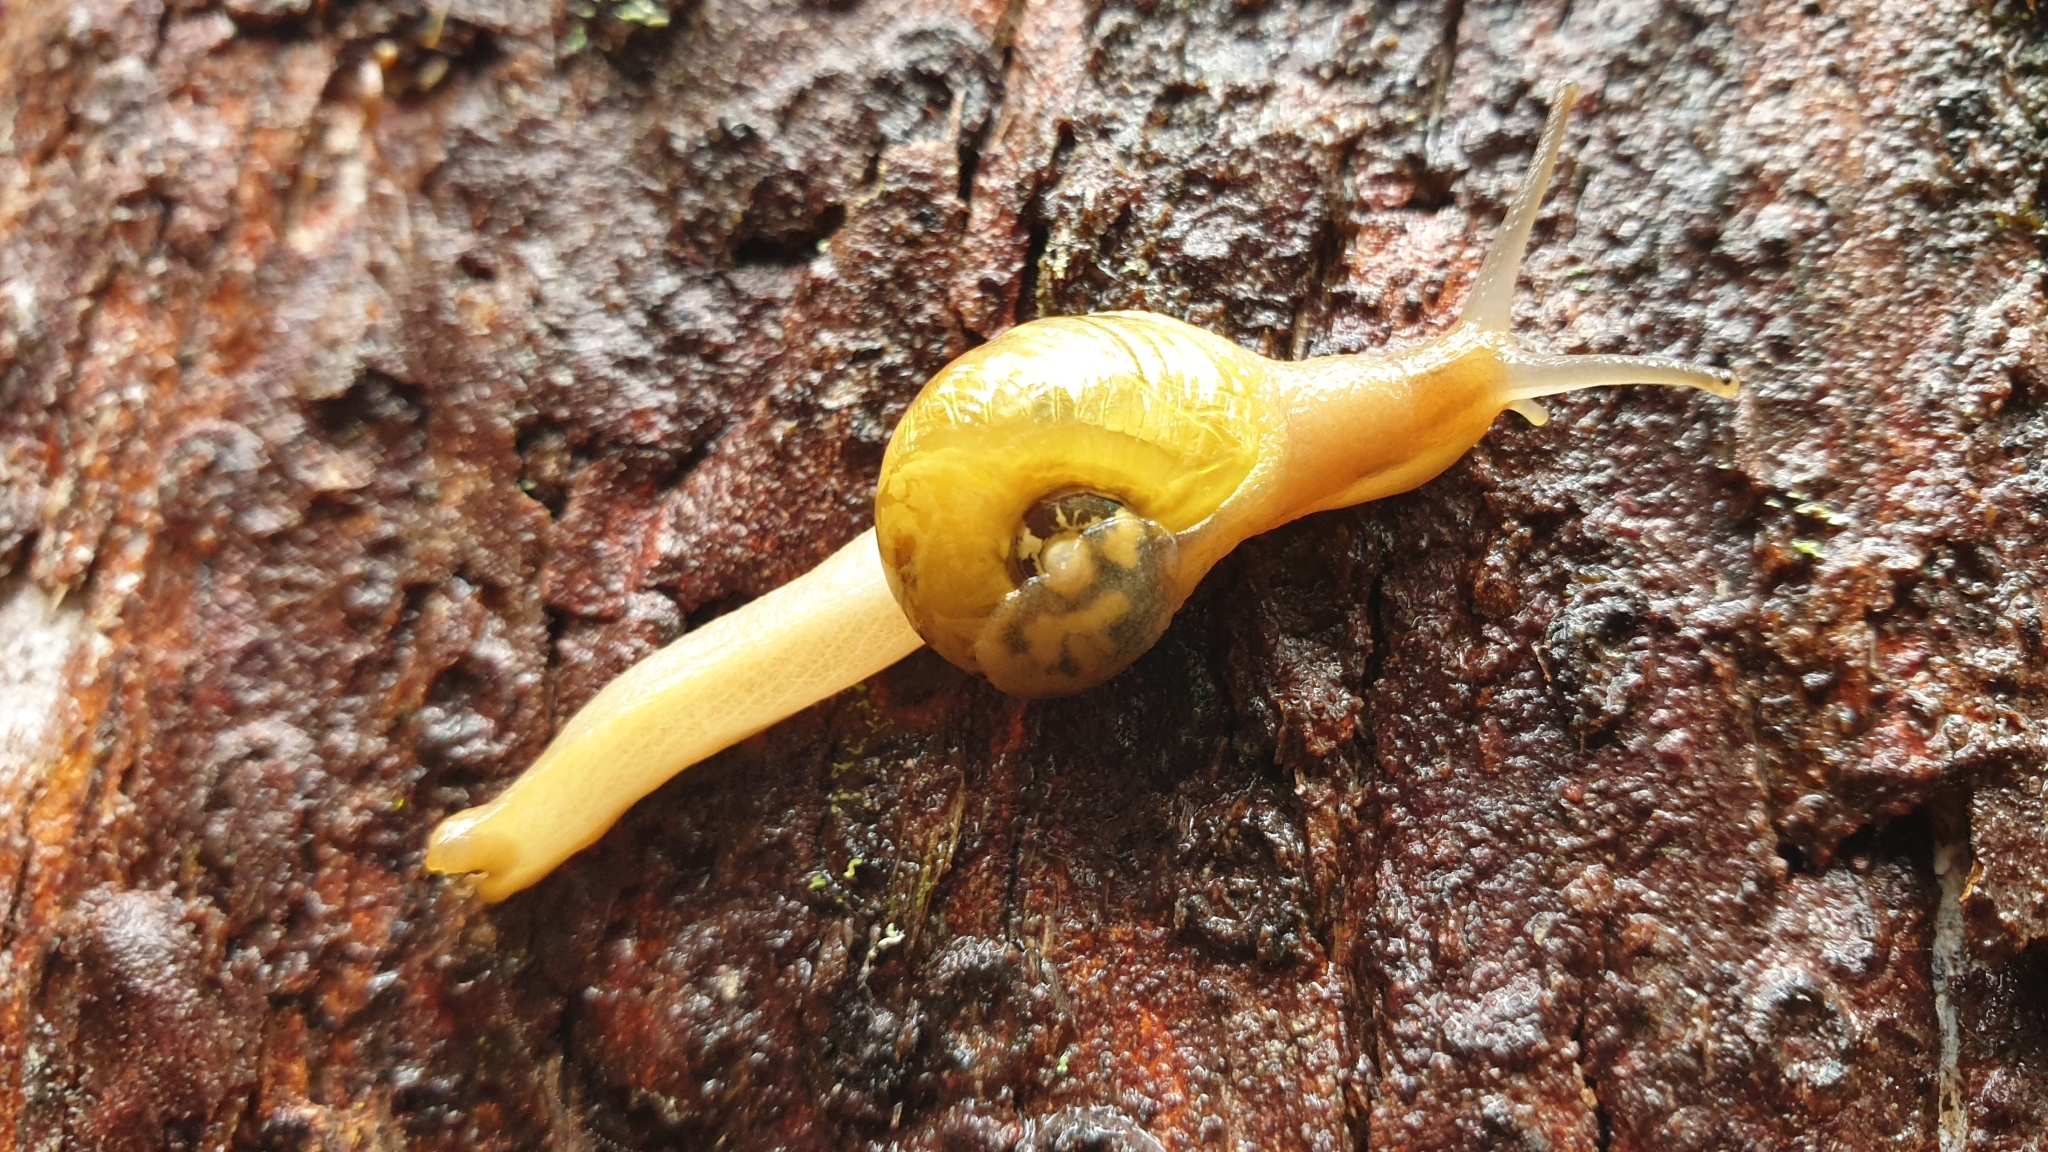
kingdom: Animalia
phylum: Mollusca
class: Gastropoda
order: Stylommatophora
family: Helicarionidae
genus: Mysticarion
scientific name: Mysticarion porrectus
